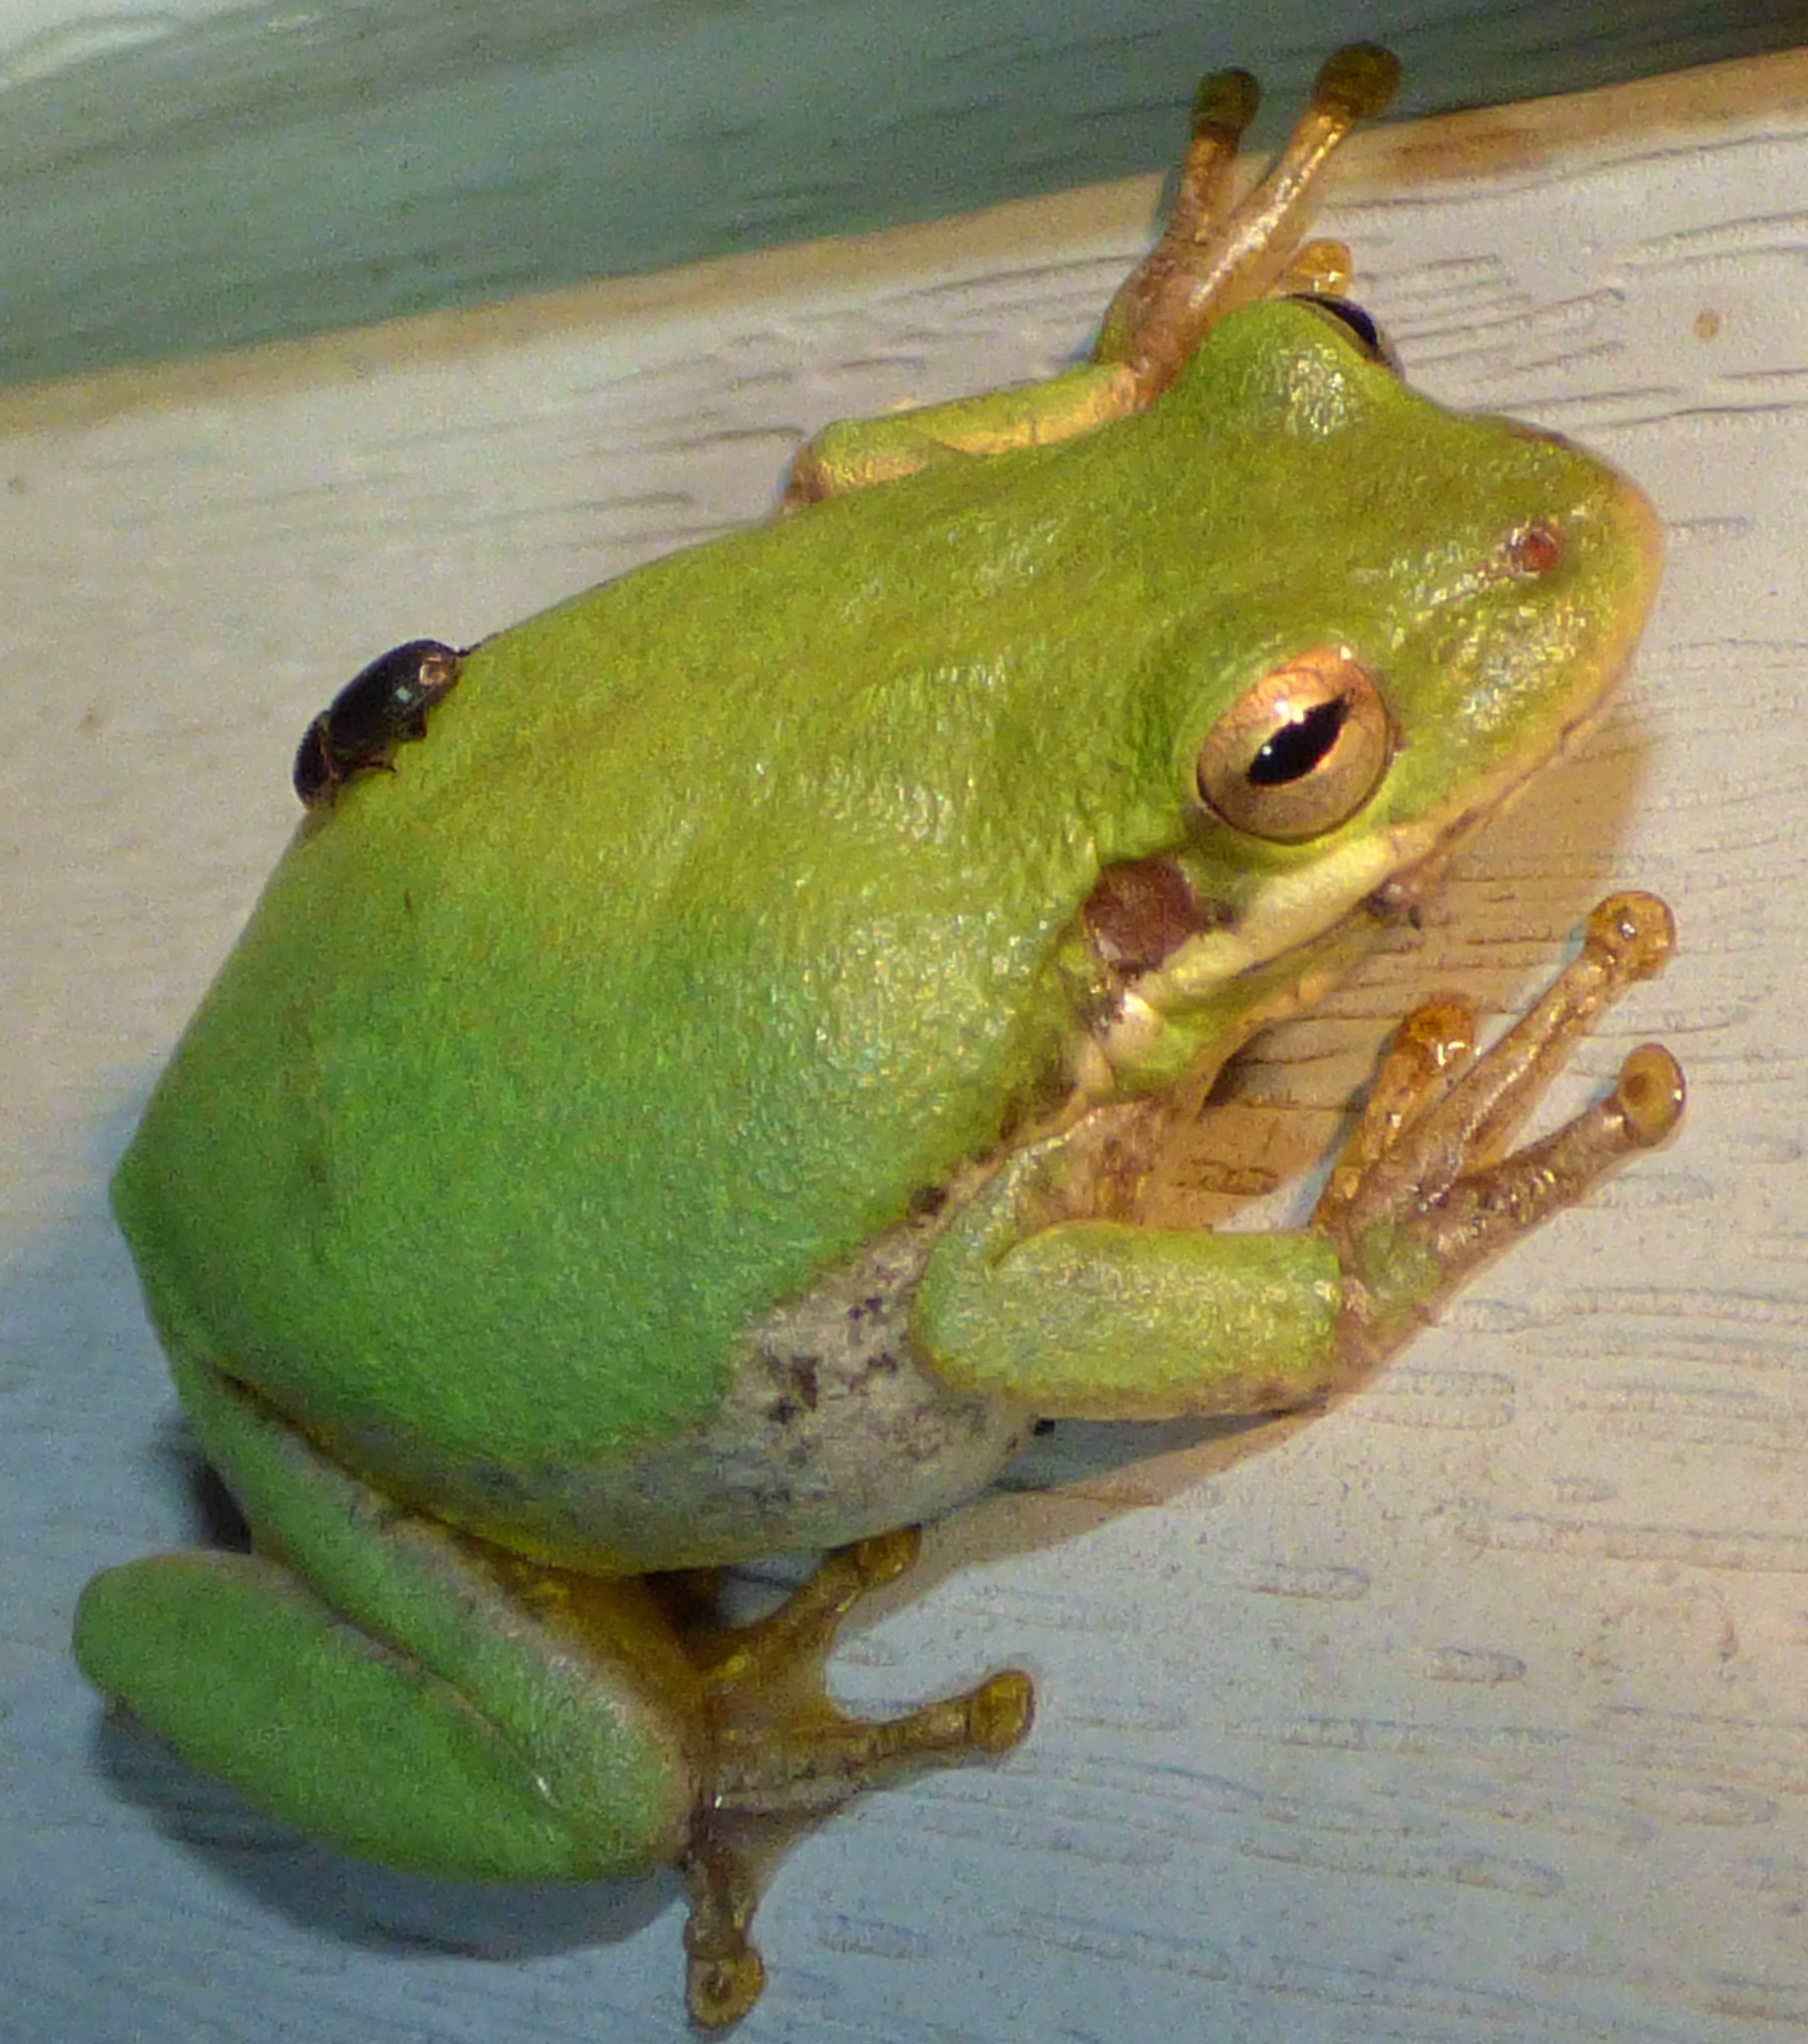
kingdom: Animalia
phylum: Chordata
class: Amphibia
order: Anura
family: Hylidae
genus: Dryophytes
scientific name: Dryophytes squirellus
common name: Squirrel treefrog
